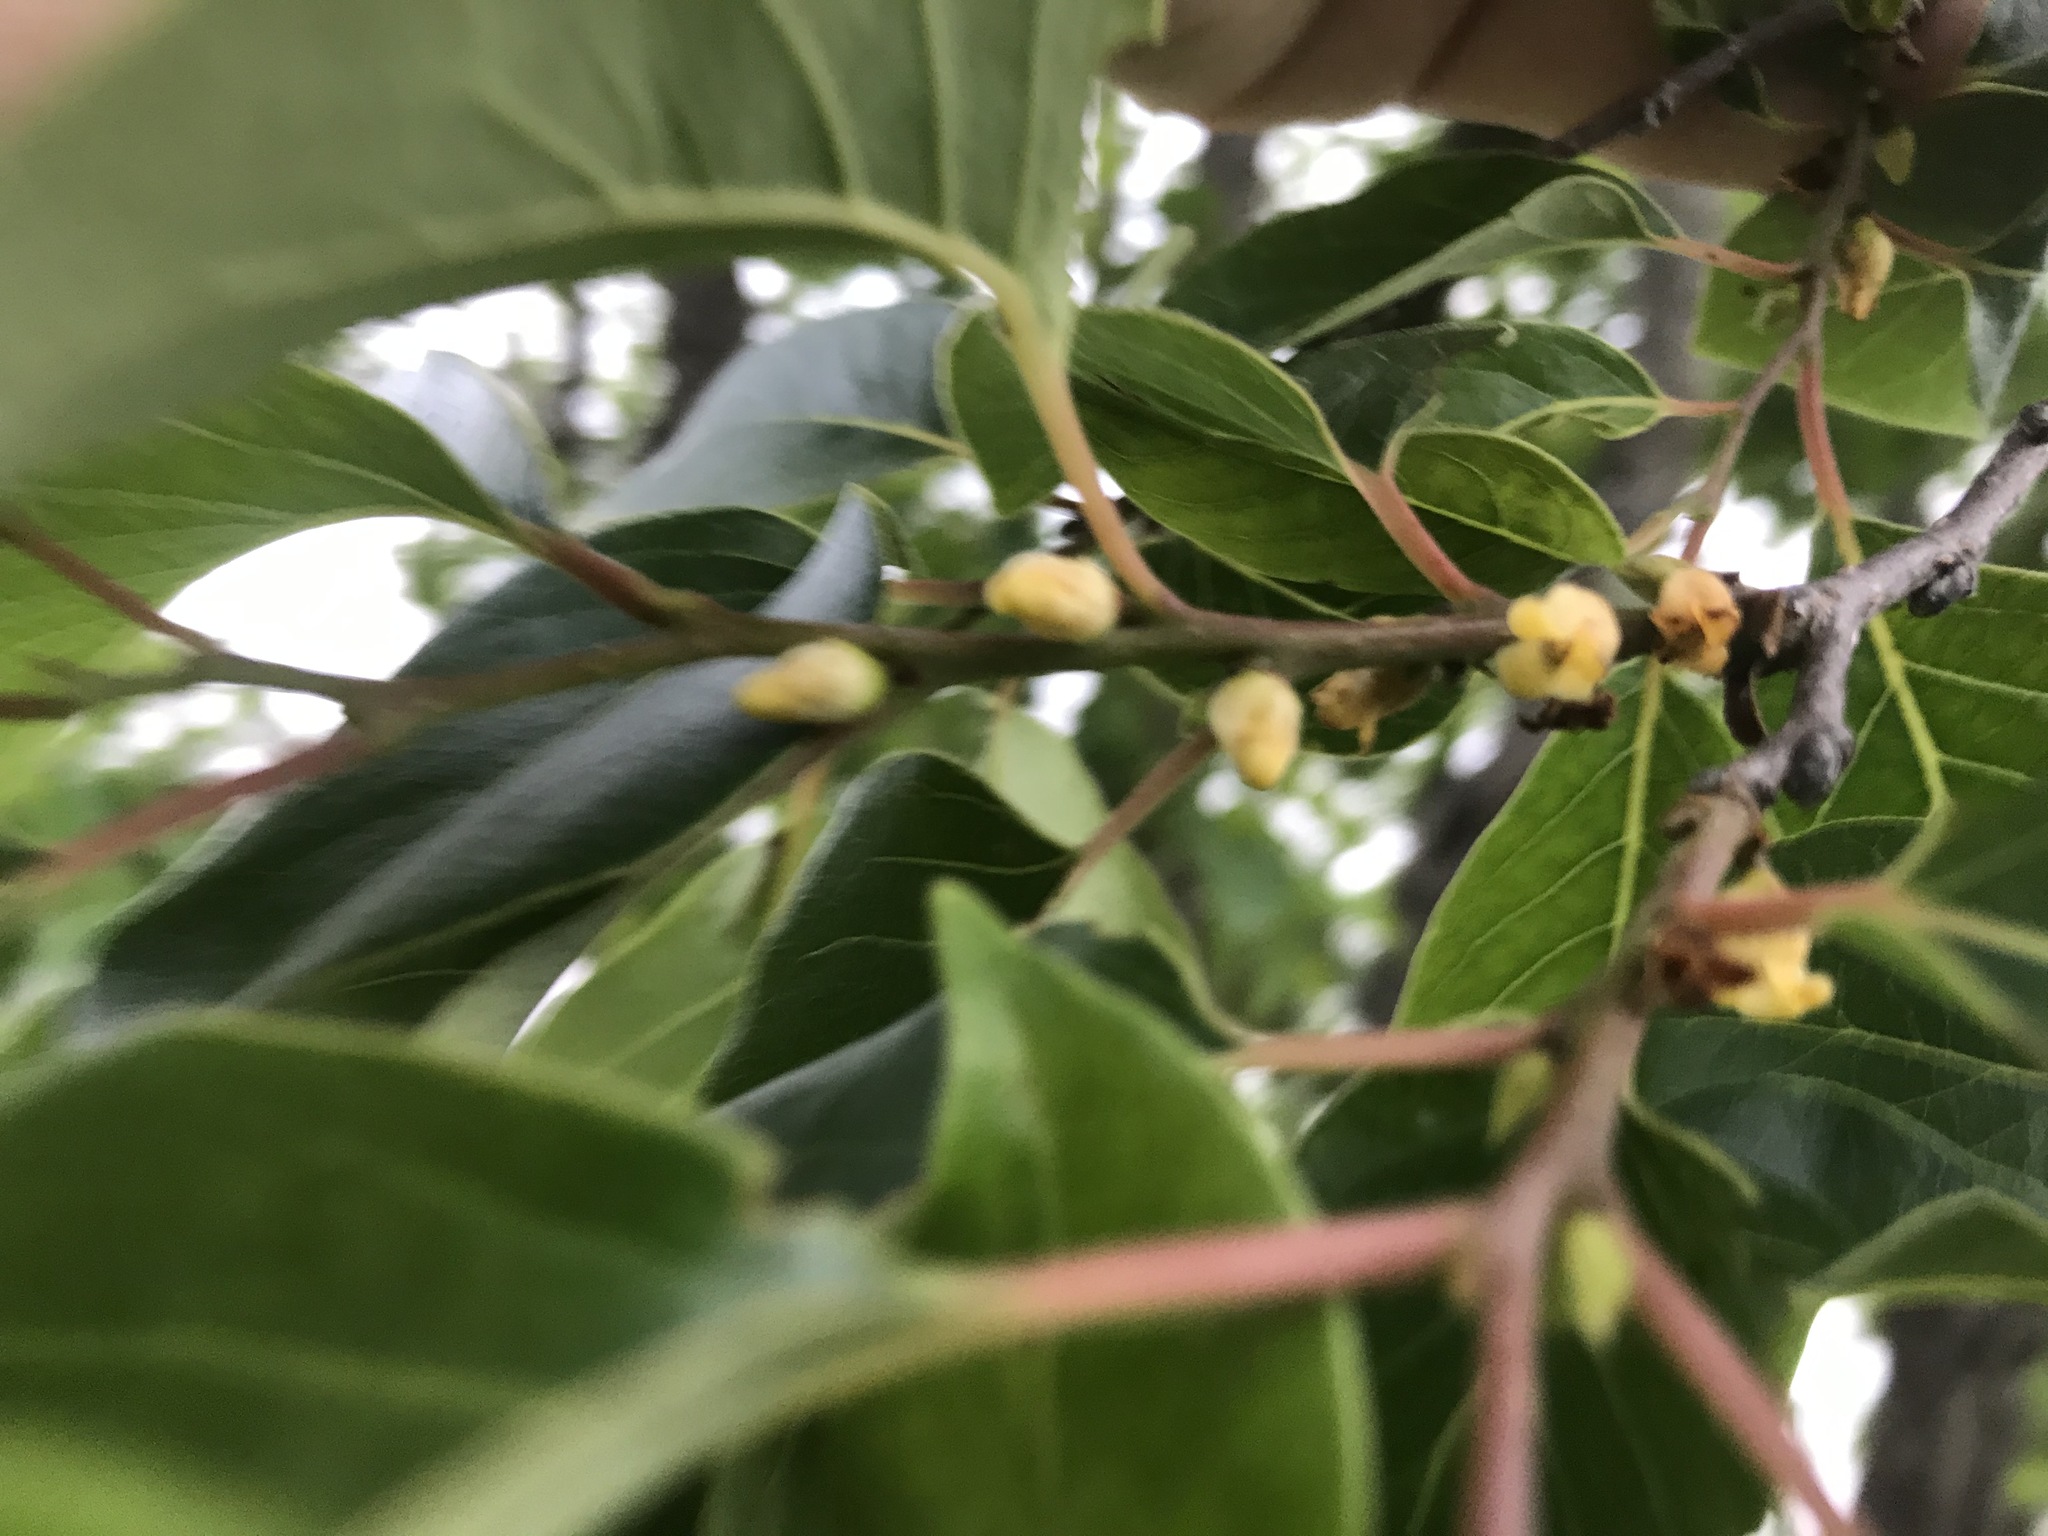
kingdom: Plantae
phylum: Tracheophyta
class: Magnoliopsida
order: Ericales
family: Ebenaceae
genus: Diospyros
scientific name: Diospyros virginiana
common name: Persimmon
